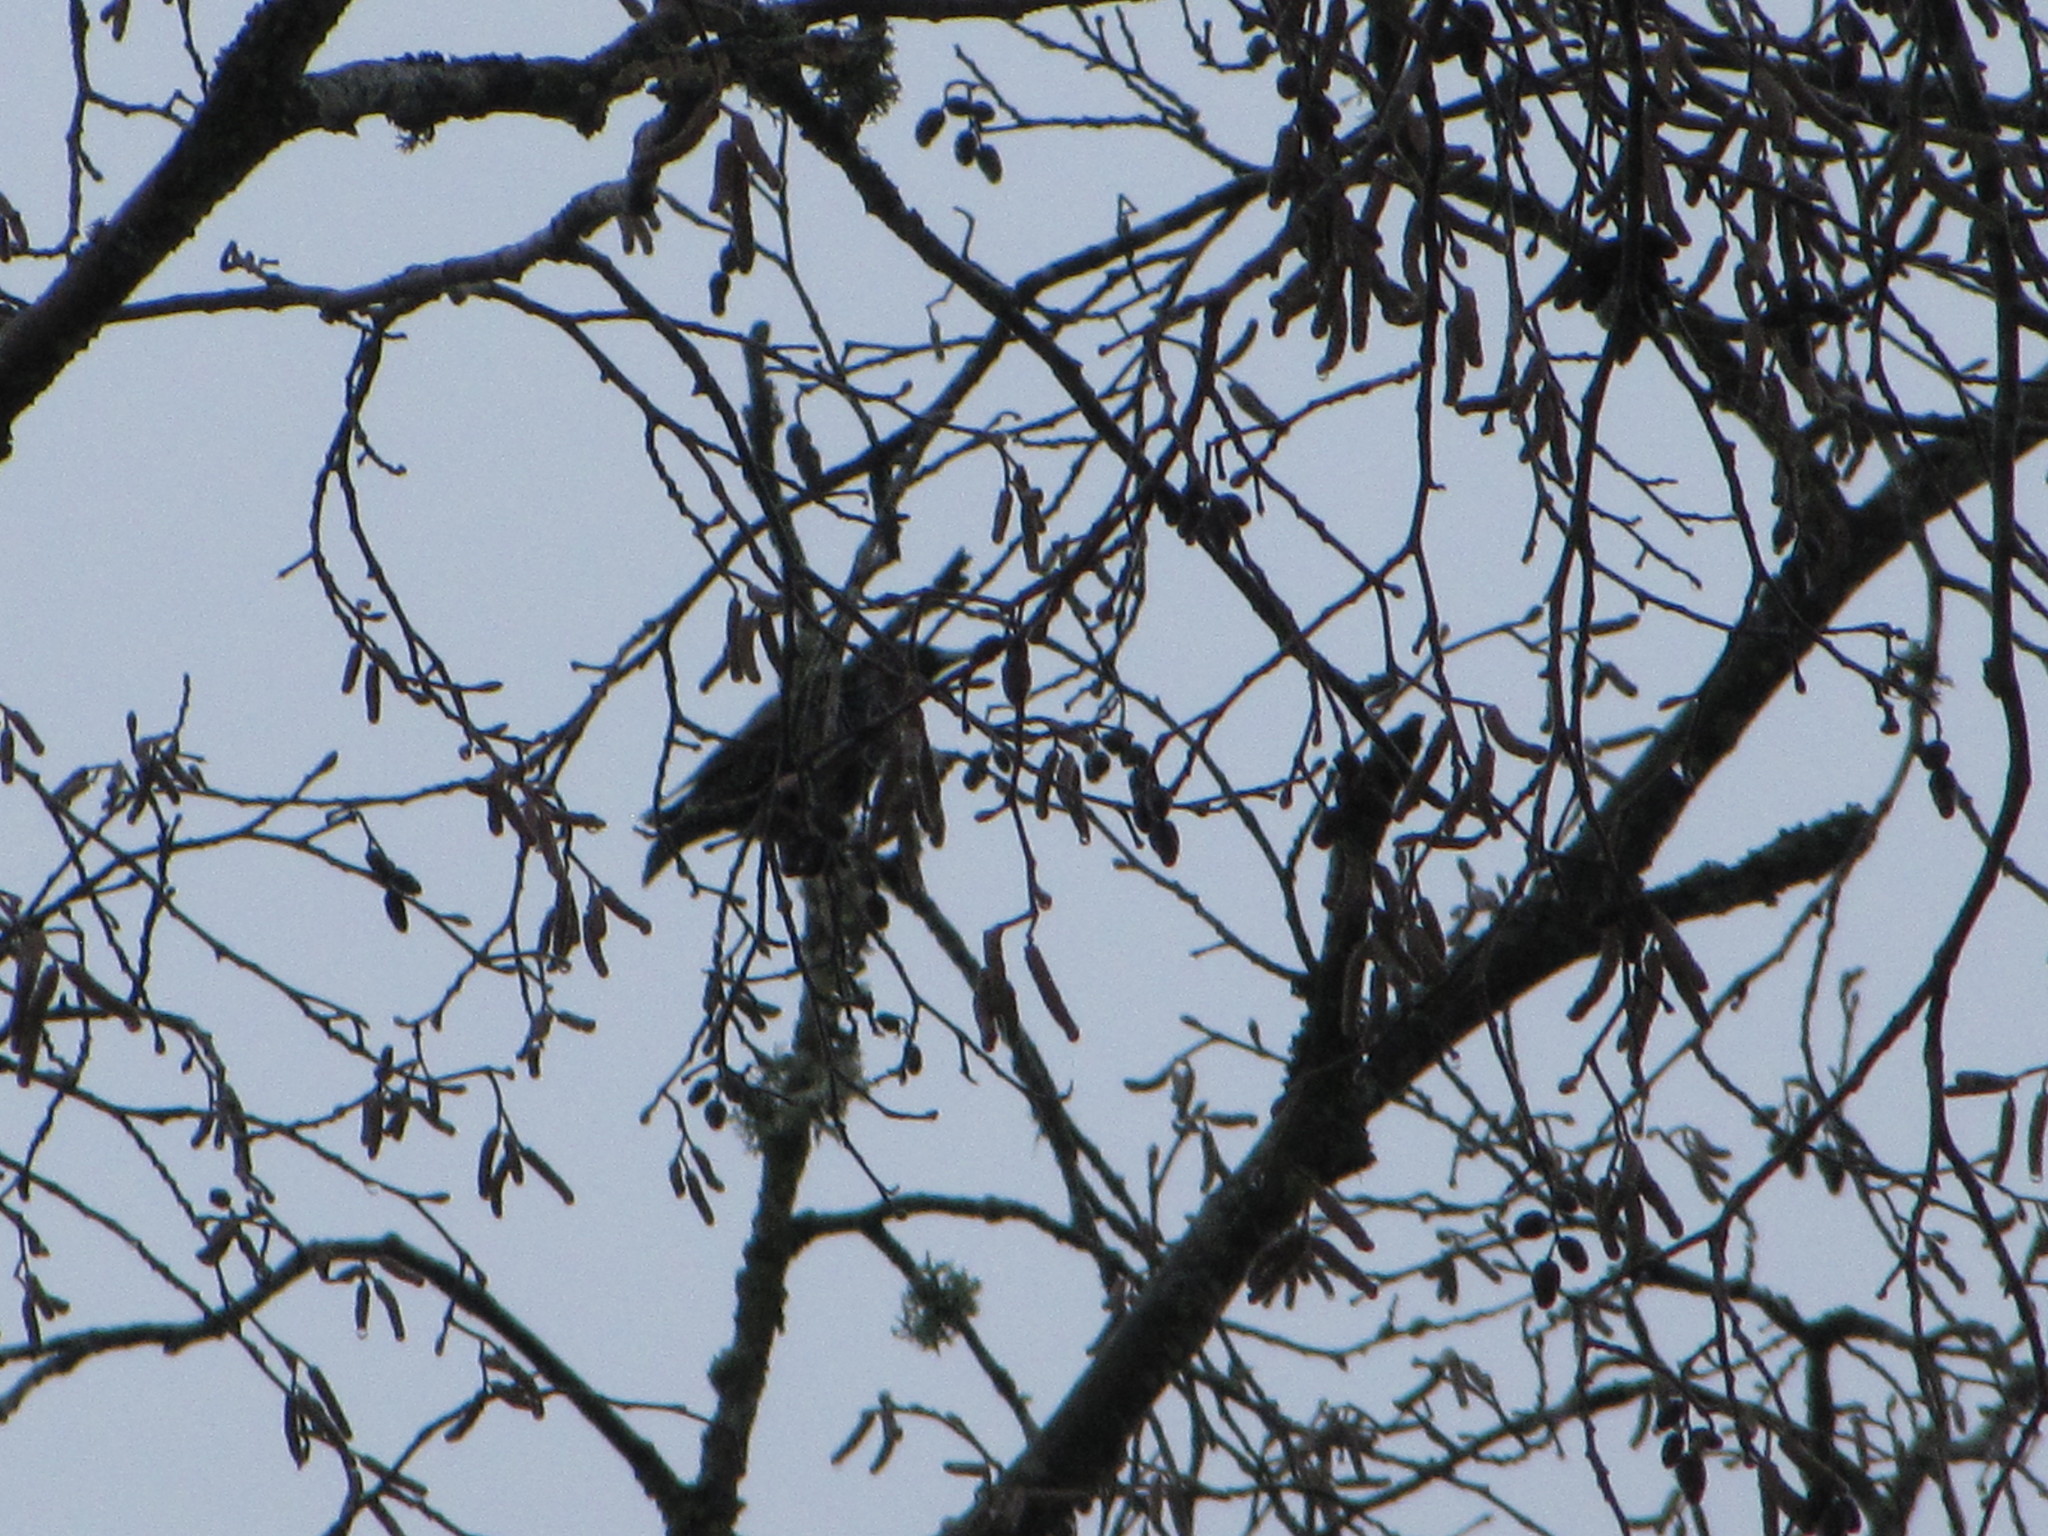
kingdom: Animalia
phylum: Chordata
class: Aves
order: Passeriformes
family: Sturnidae
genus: Sturnus
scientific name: Sturnus vulgaris
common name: Common starling
